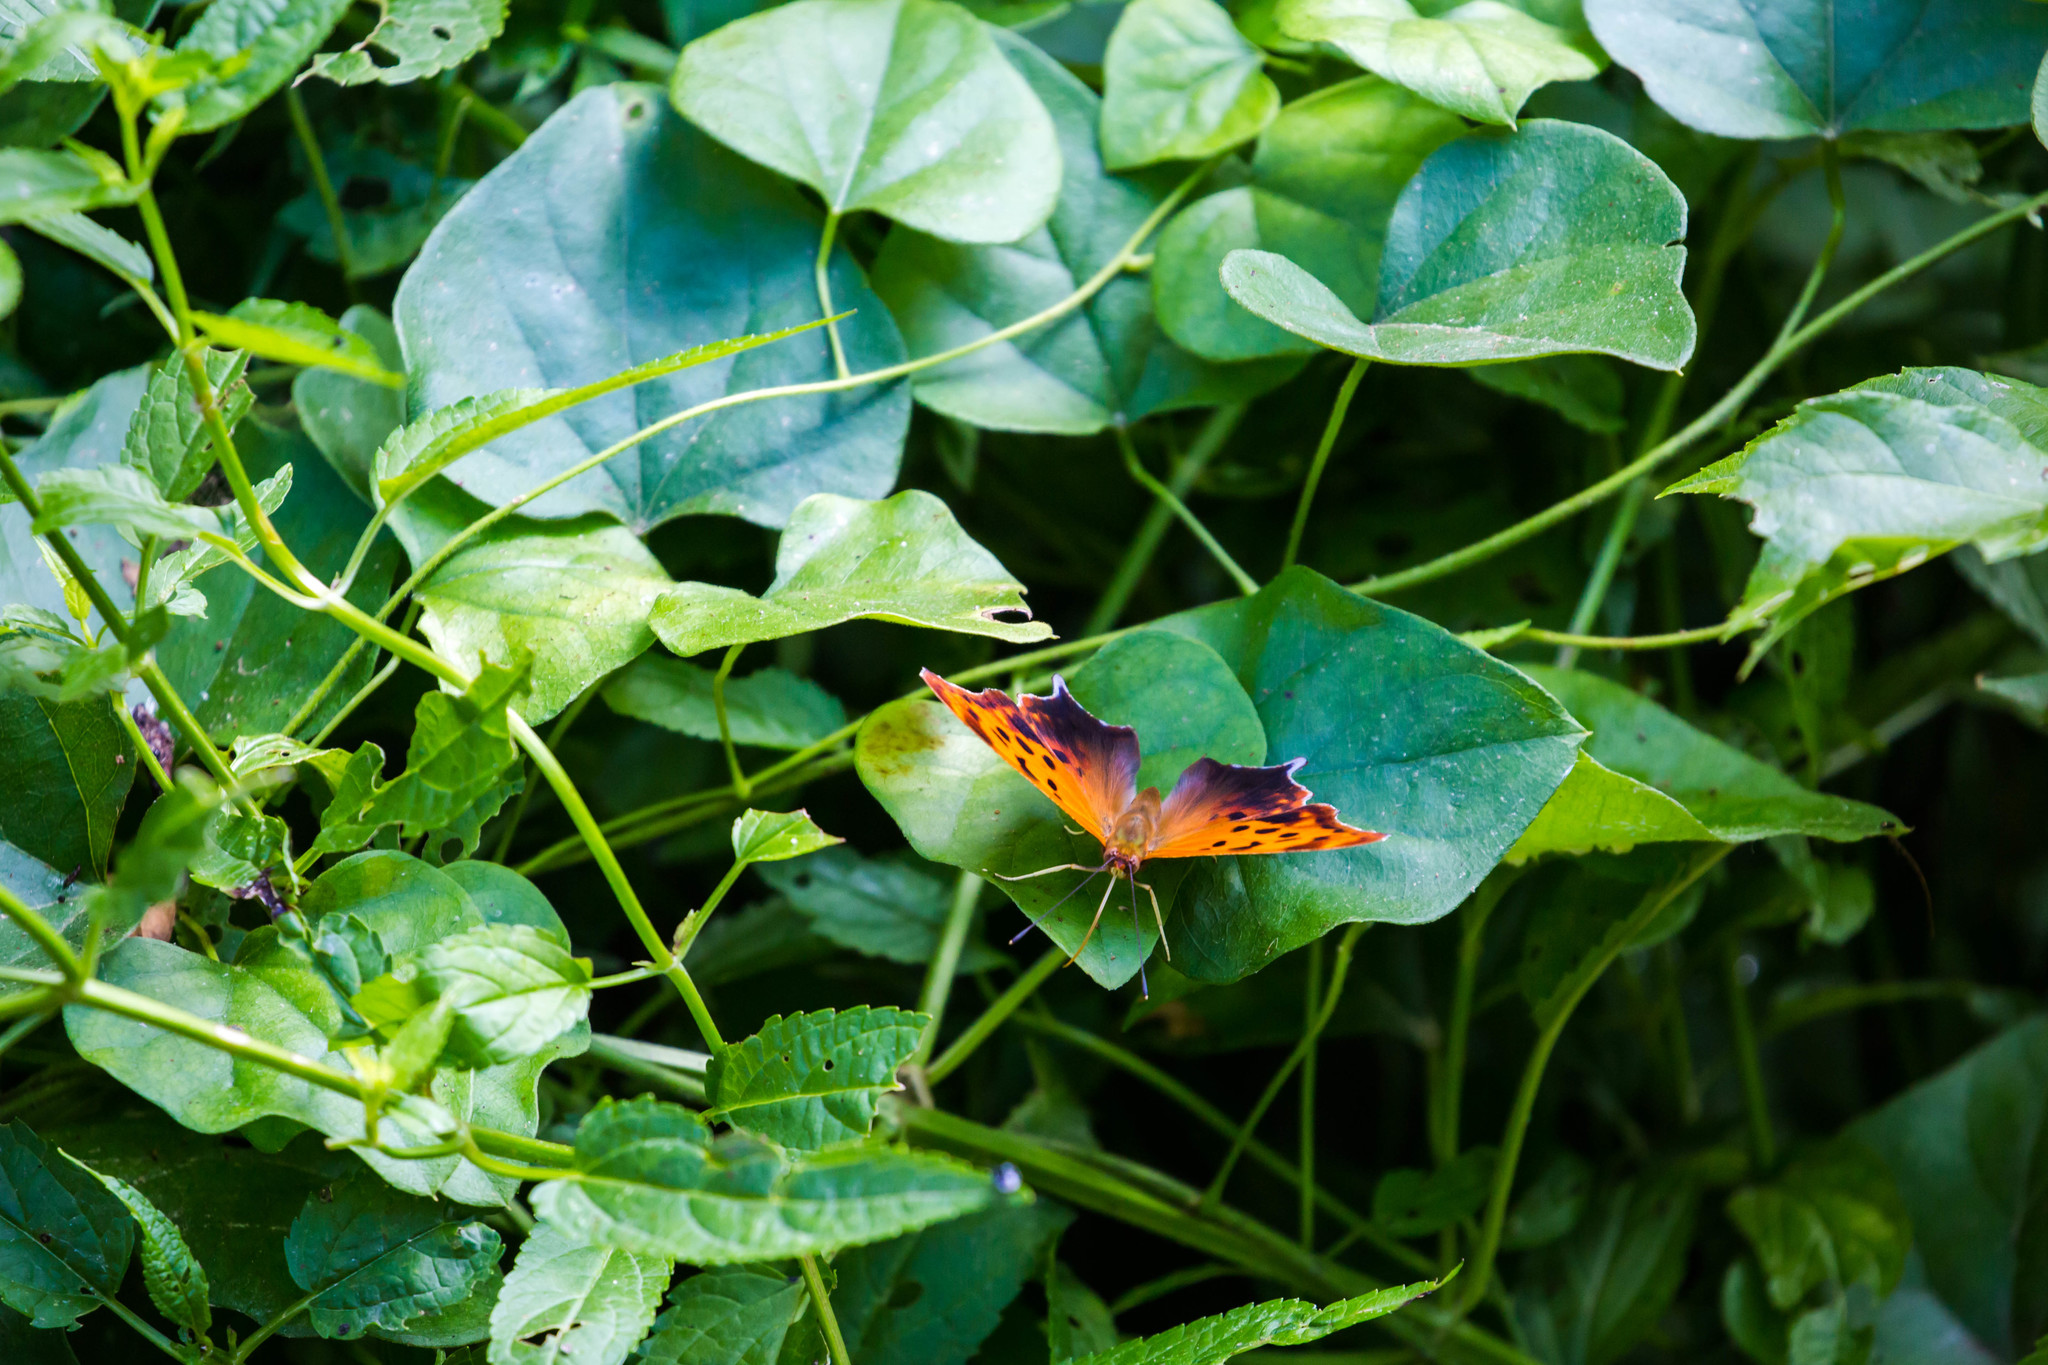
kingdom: Animalia
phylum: Arthropoda
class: Insecta
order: Lepidoptera
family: Nymphalidae
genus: Polygonia
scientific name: Polygonia interrogationis
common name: Question mark
